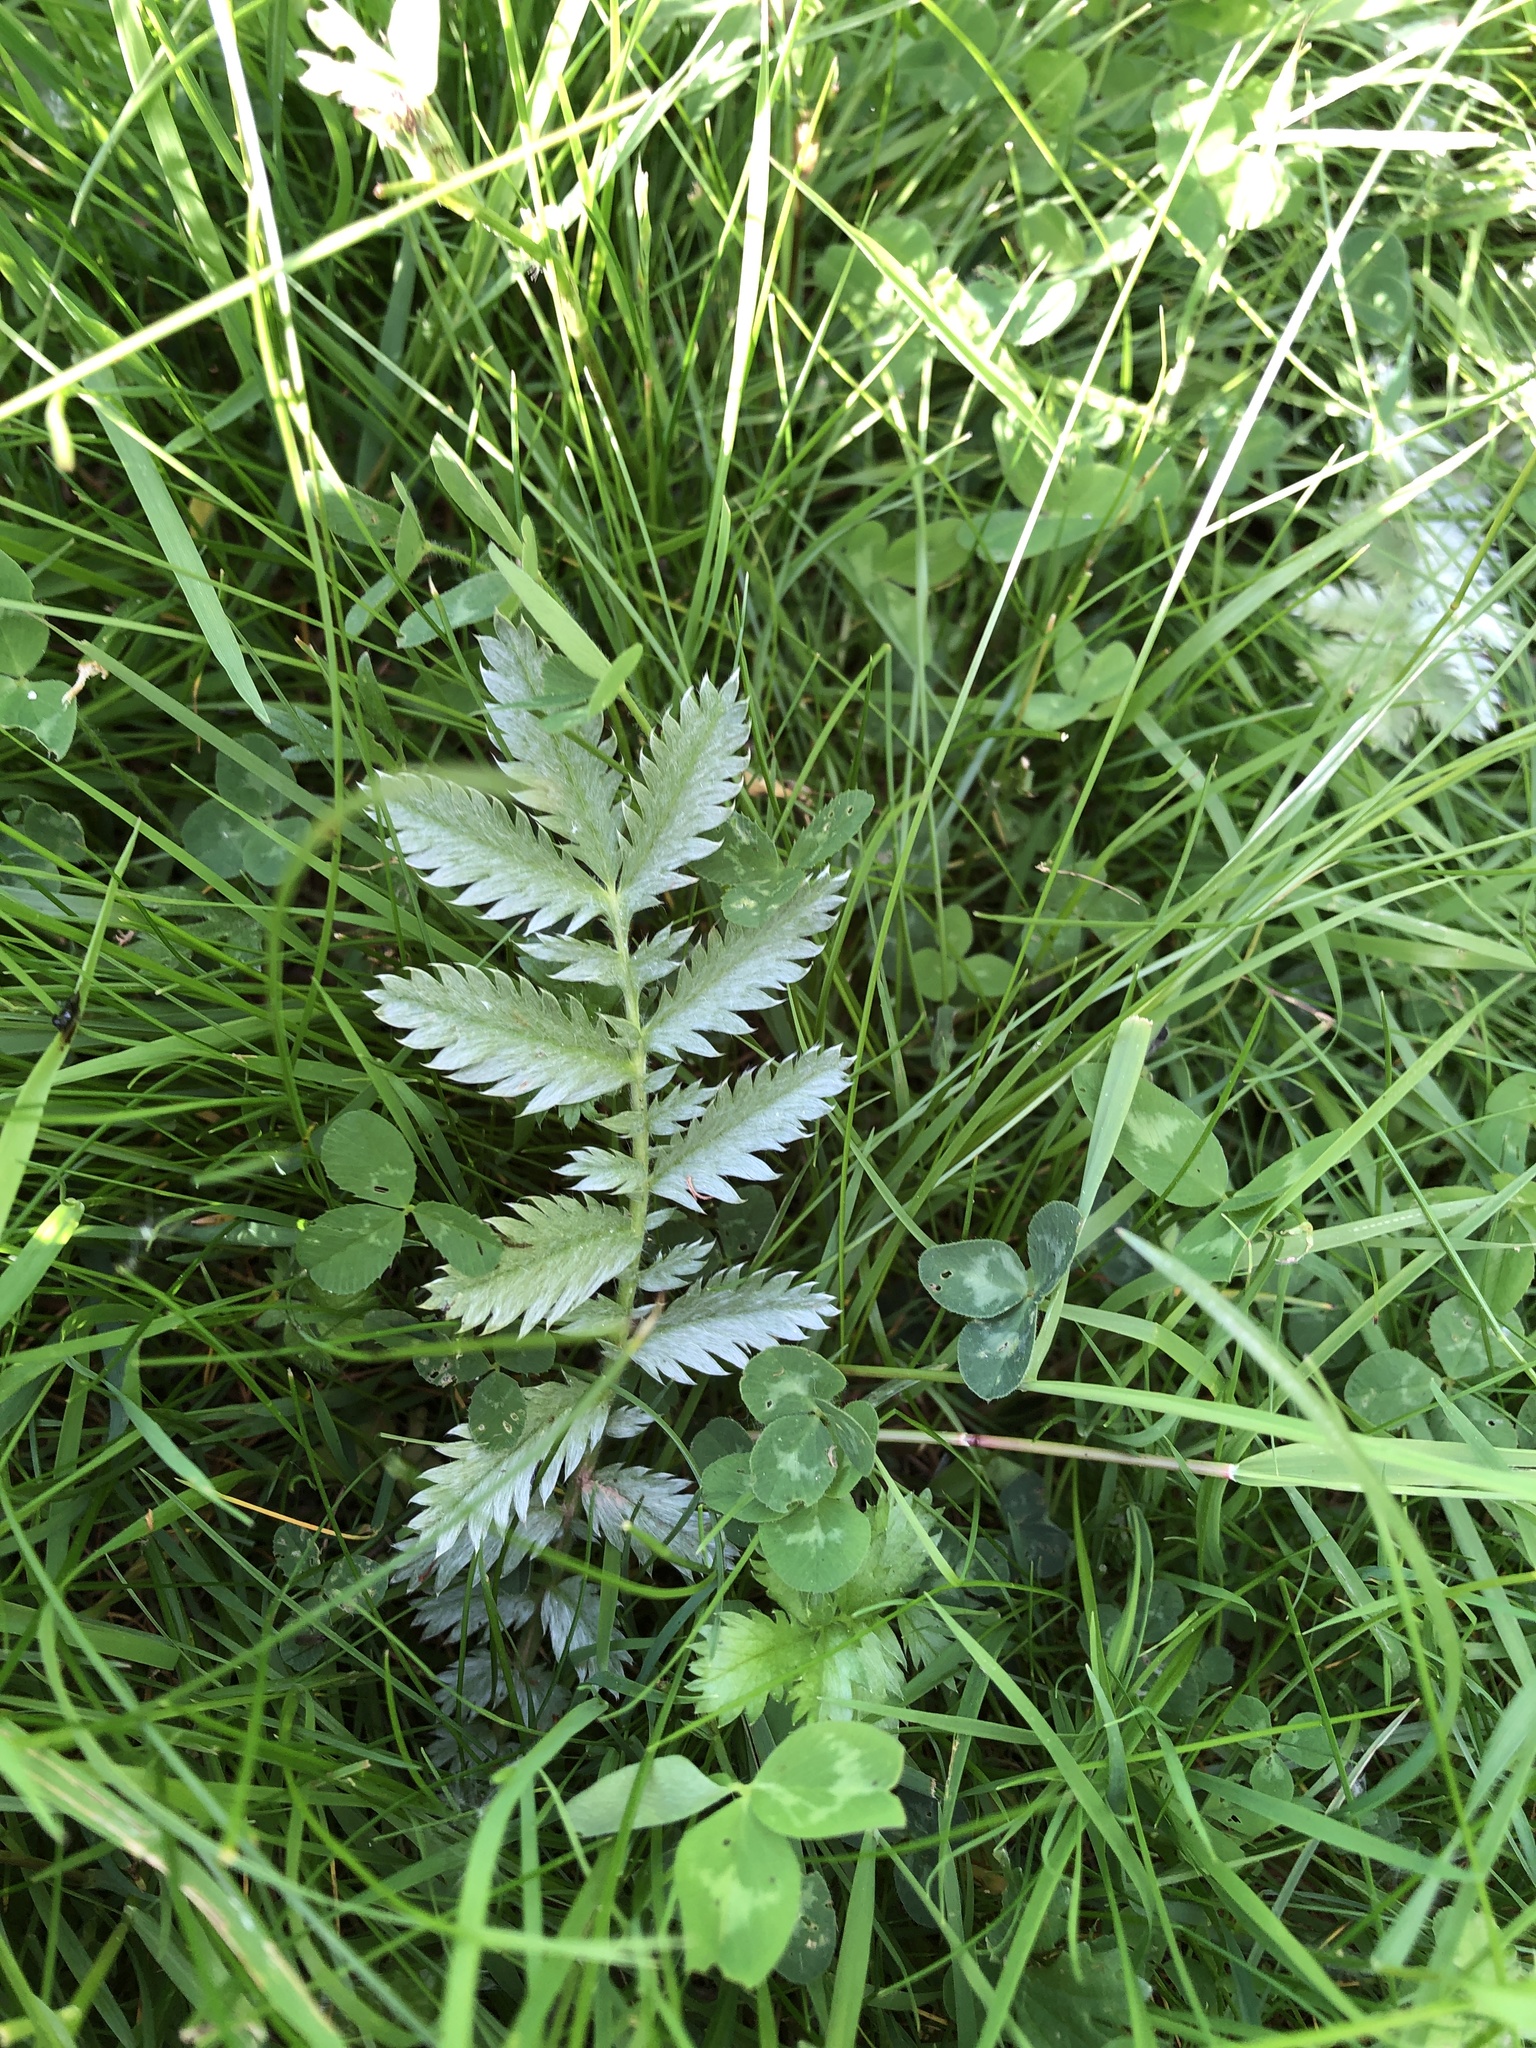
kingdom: Plantae
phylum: Tracheophyta
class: Magnoliopsida
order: Rosales
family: Rosaceae
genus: Argentina
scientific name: Argentina anserina
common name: Common silverweed
